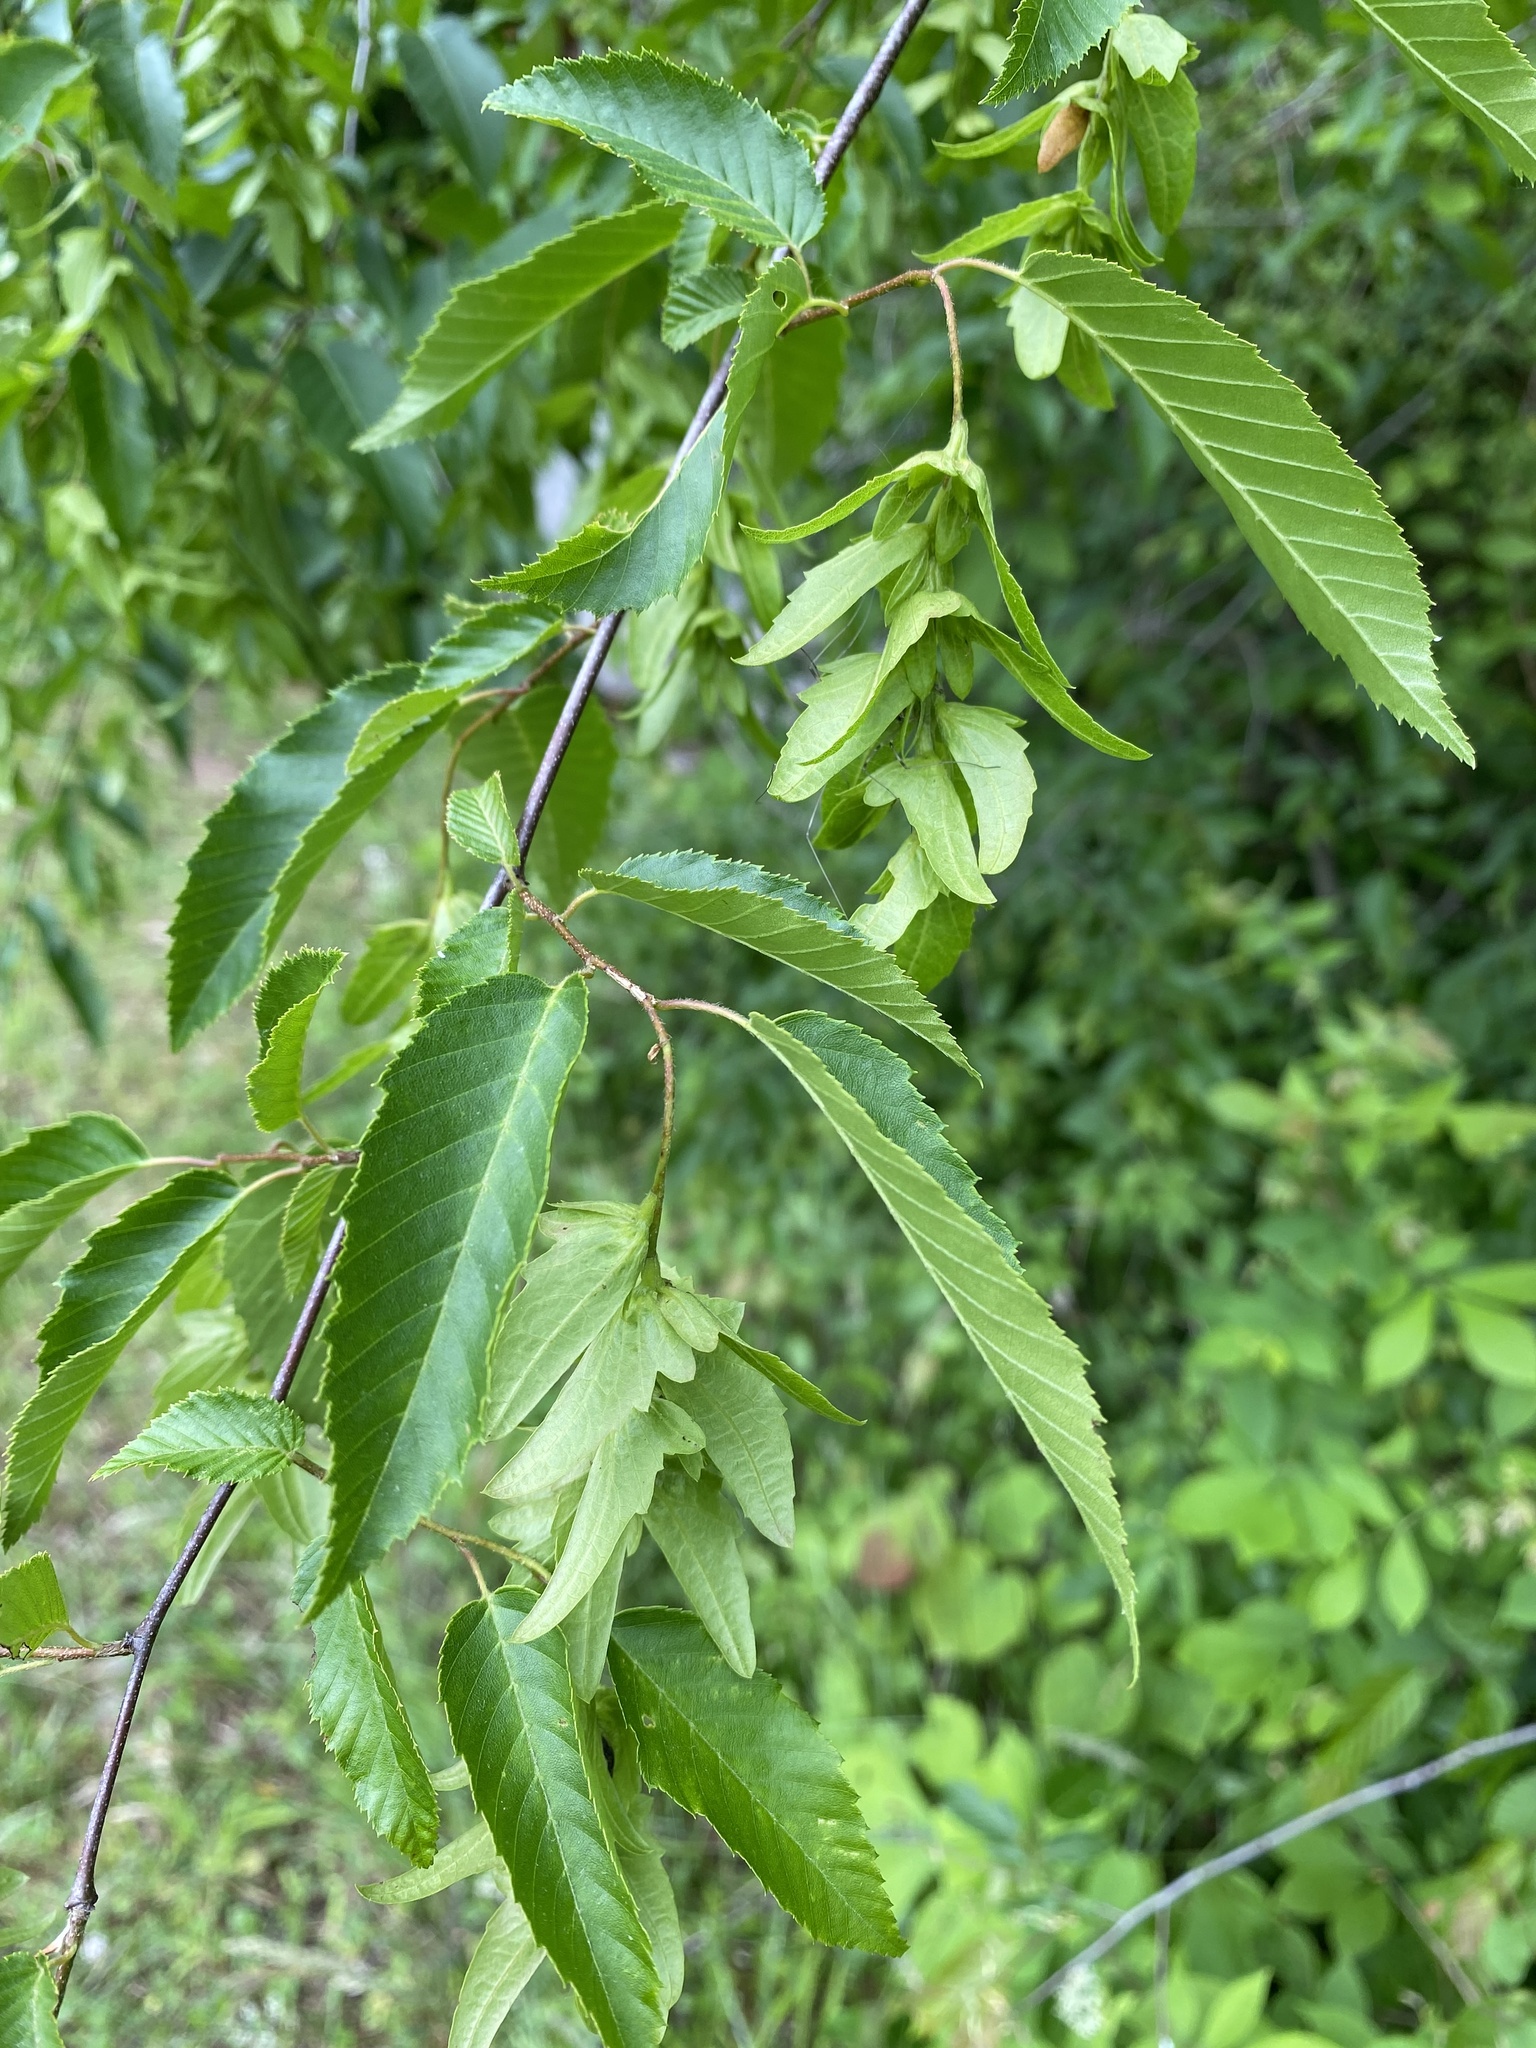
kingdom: Plantae
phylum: Tracheophyta
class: Magnoliopsida
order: Fagales
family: Betulaceae
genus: Carpinus
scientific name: Carpinus caroliniana
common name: American hornbeam
